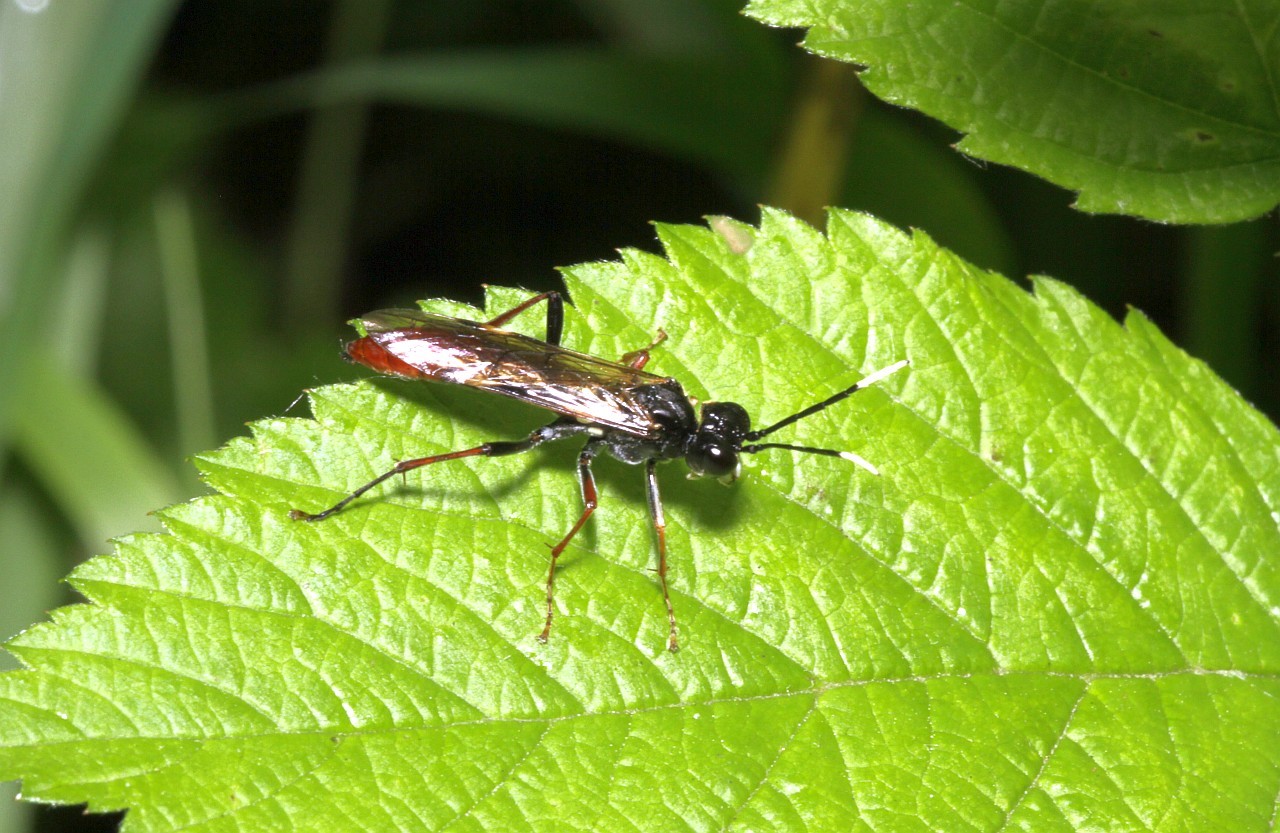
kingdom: Animalia
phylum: Arthropoda
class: Insecta
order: Hymenoptera
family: Tenthredinidae
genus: Tenthredo
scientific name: Tenthredo livida
